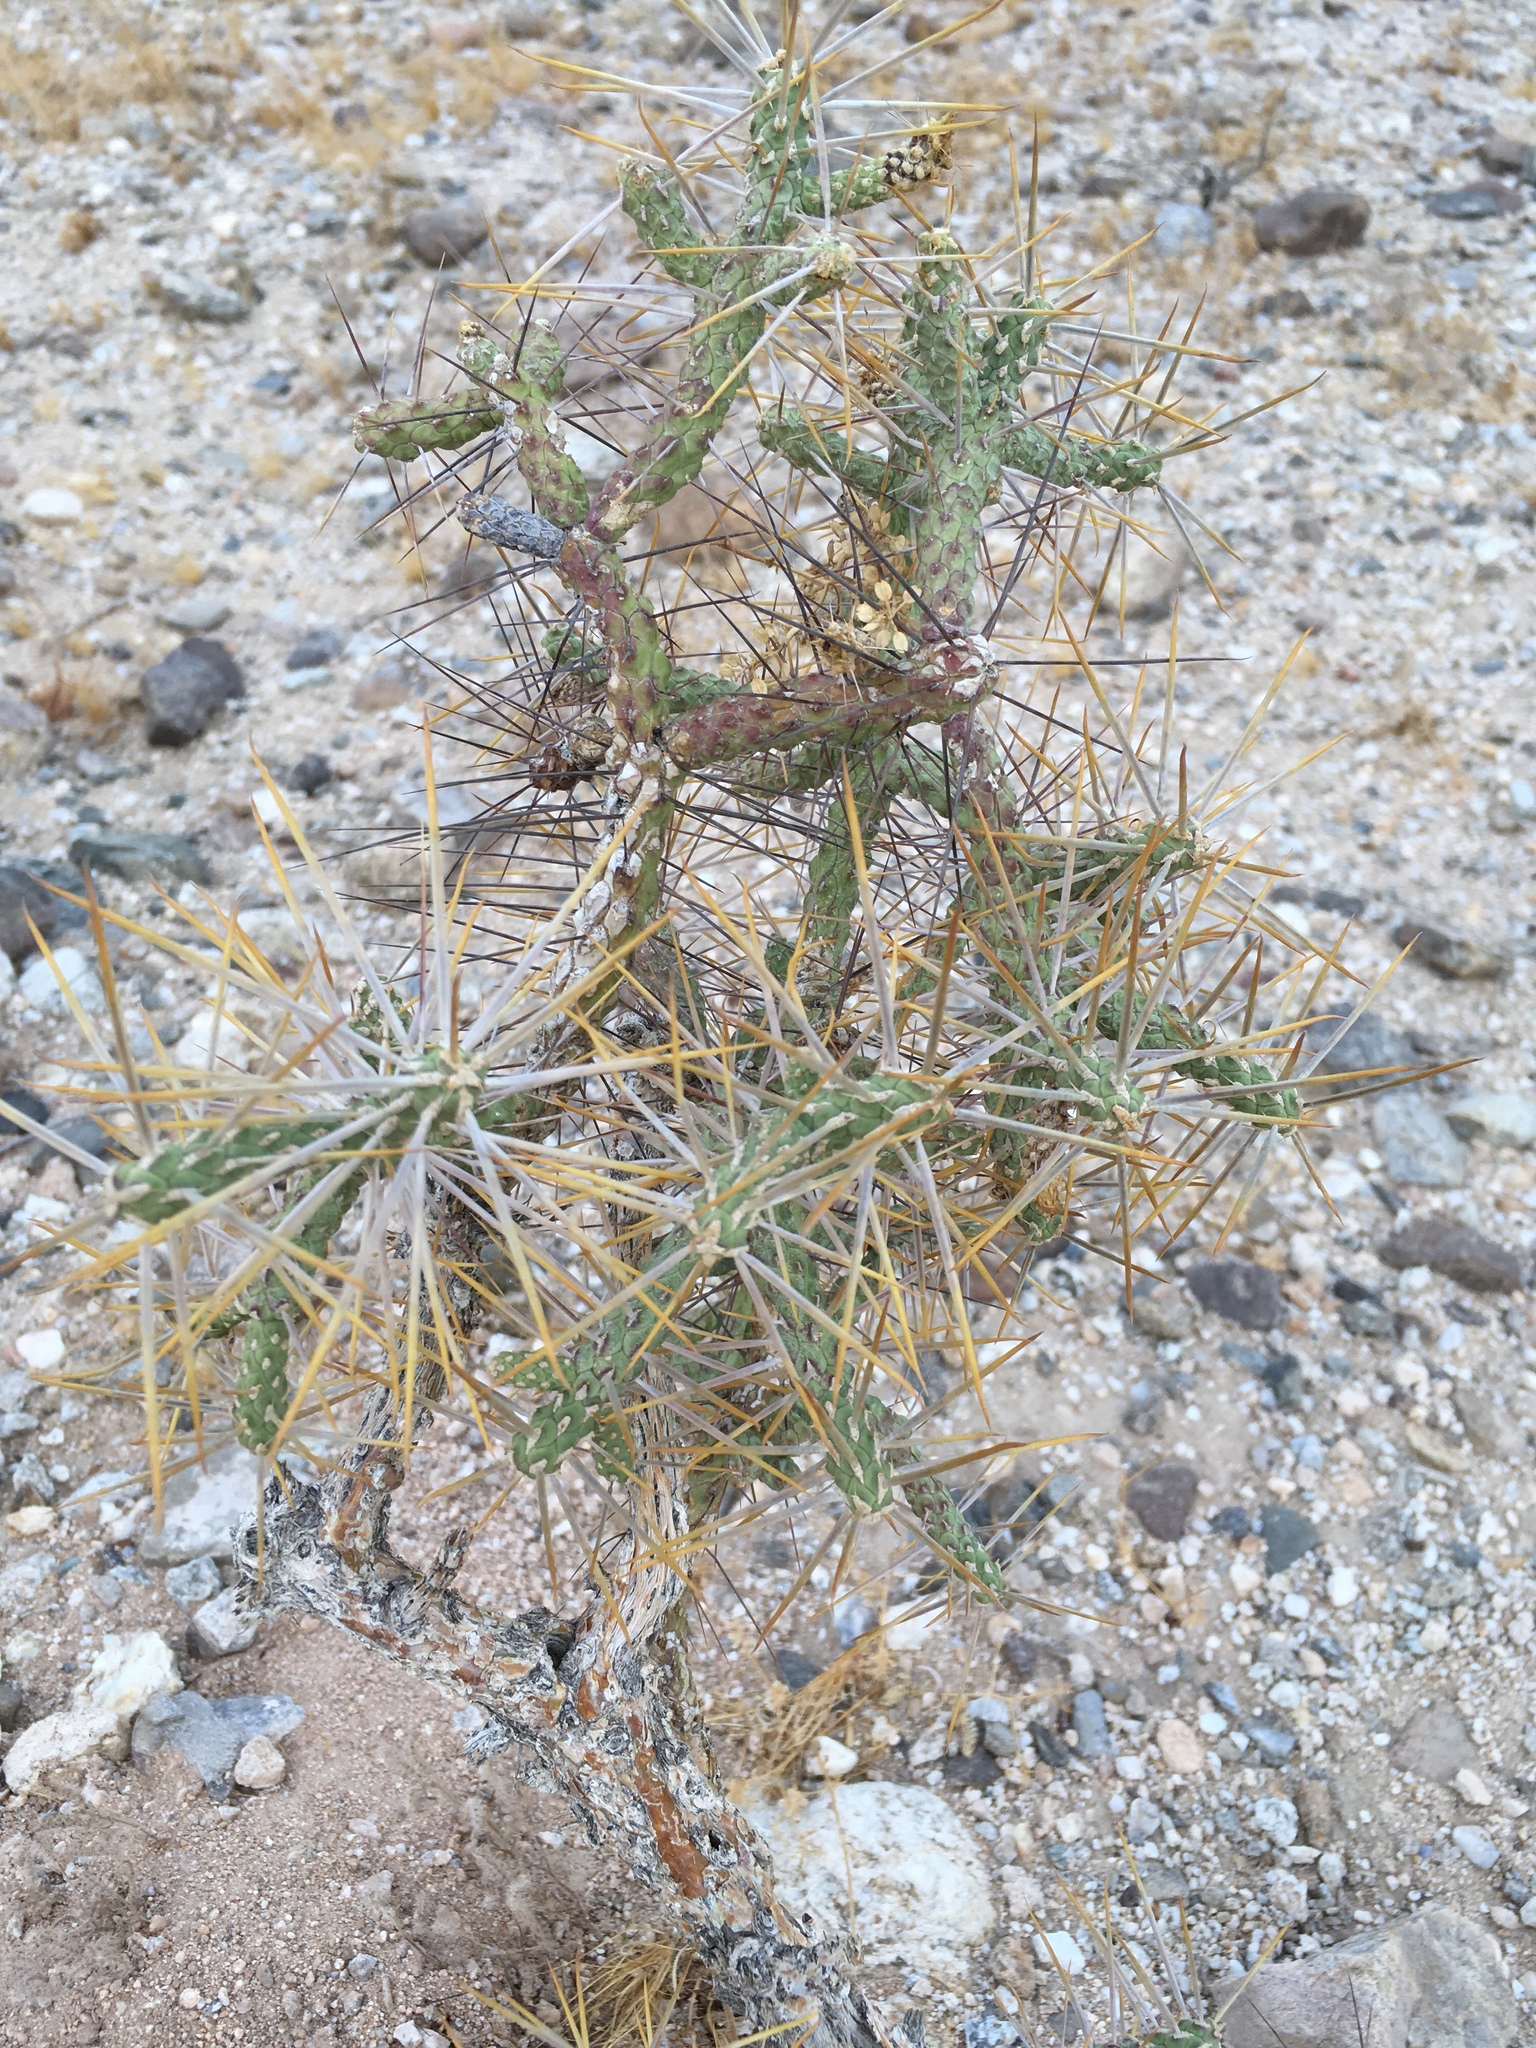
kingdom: Plantae
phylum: Tracheophyta
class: Magnoliopsida
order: Caryophyllales
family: Cactaceae
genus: Cylindropuntia
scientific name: Cylindropuntia ramosissima
